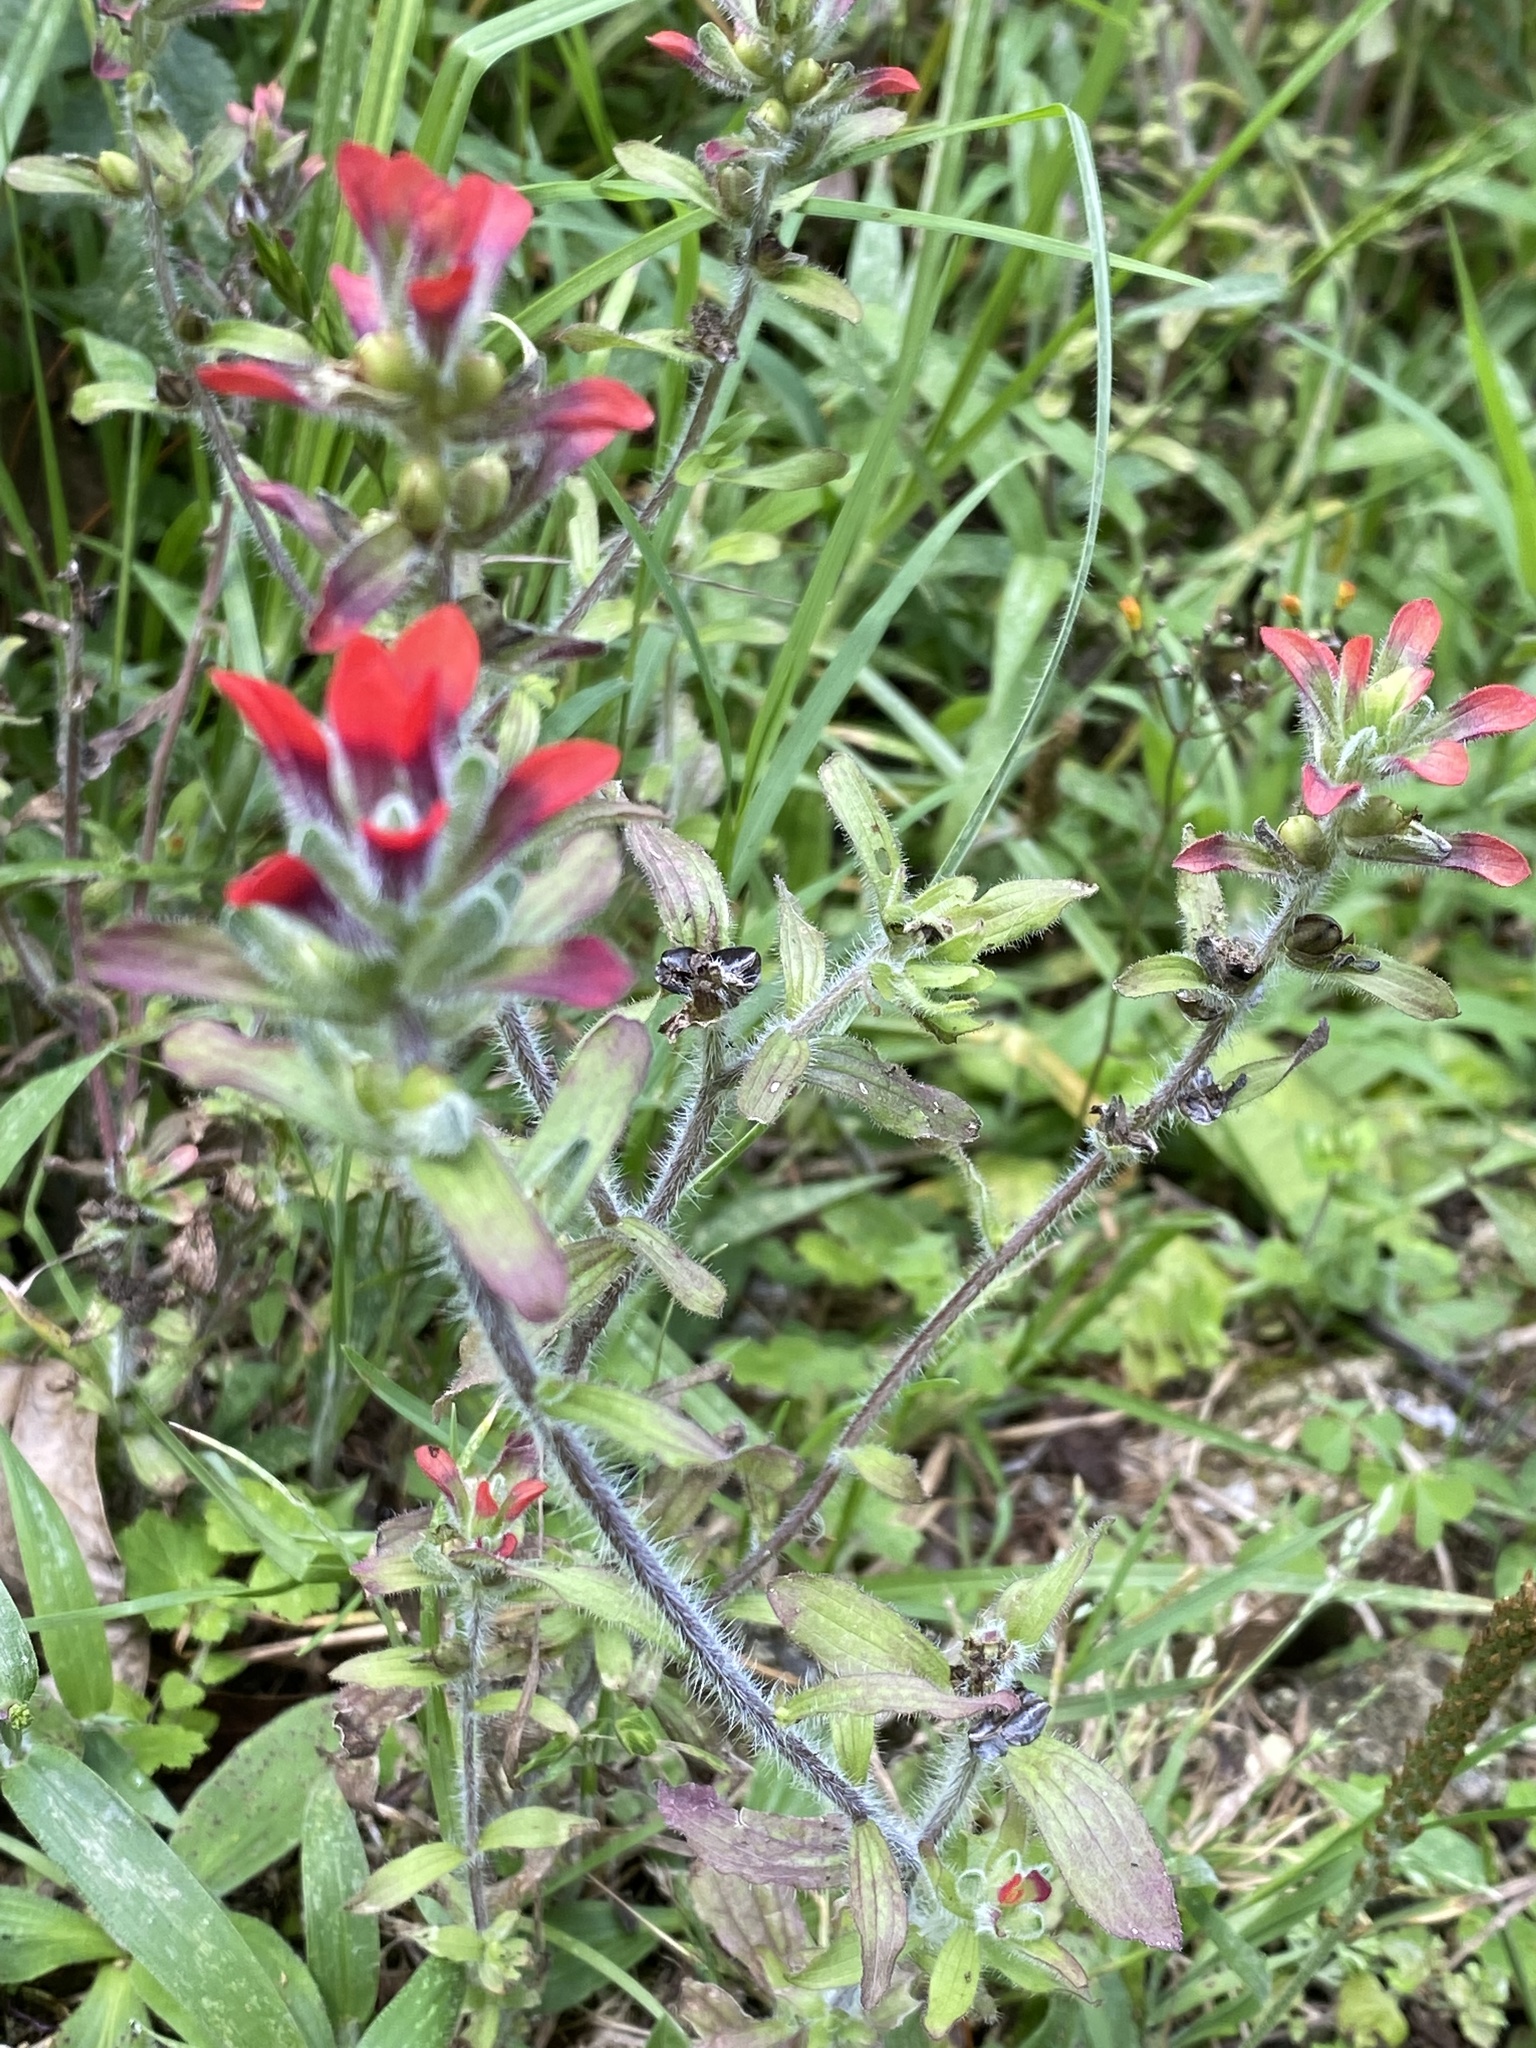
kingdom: Plantae
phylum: Tracheophyta
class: Magnoliopsida
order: Lamiales
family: Orobanchaceae
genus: Castilleja
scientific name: Castilleja arvensis
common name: Indian paintbrush
